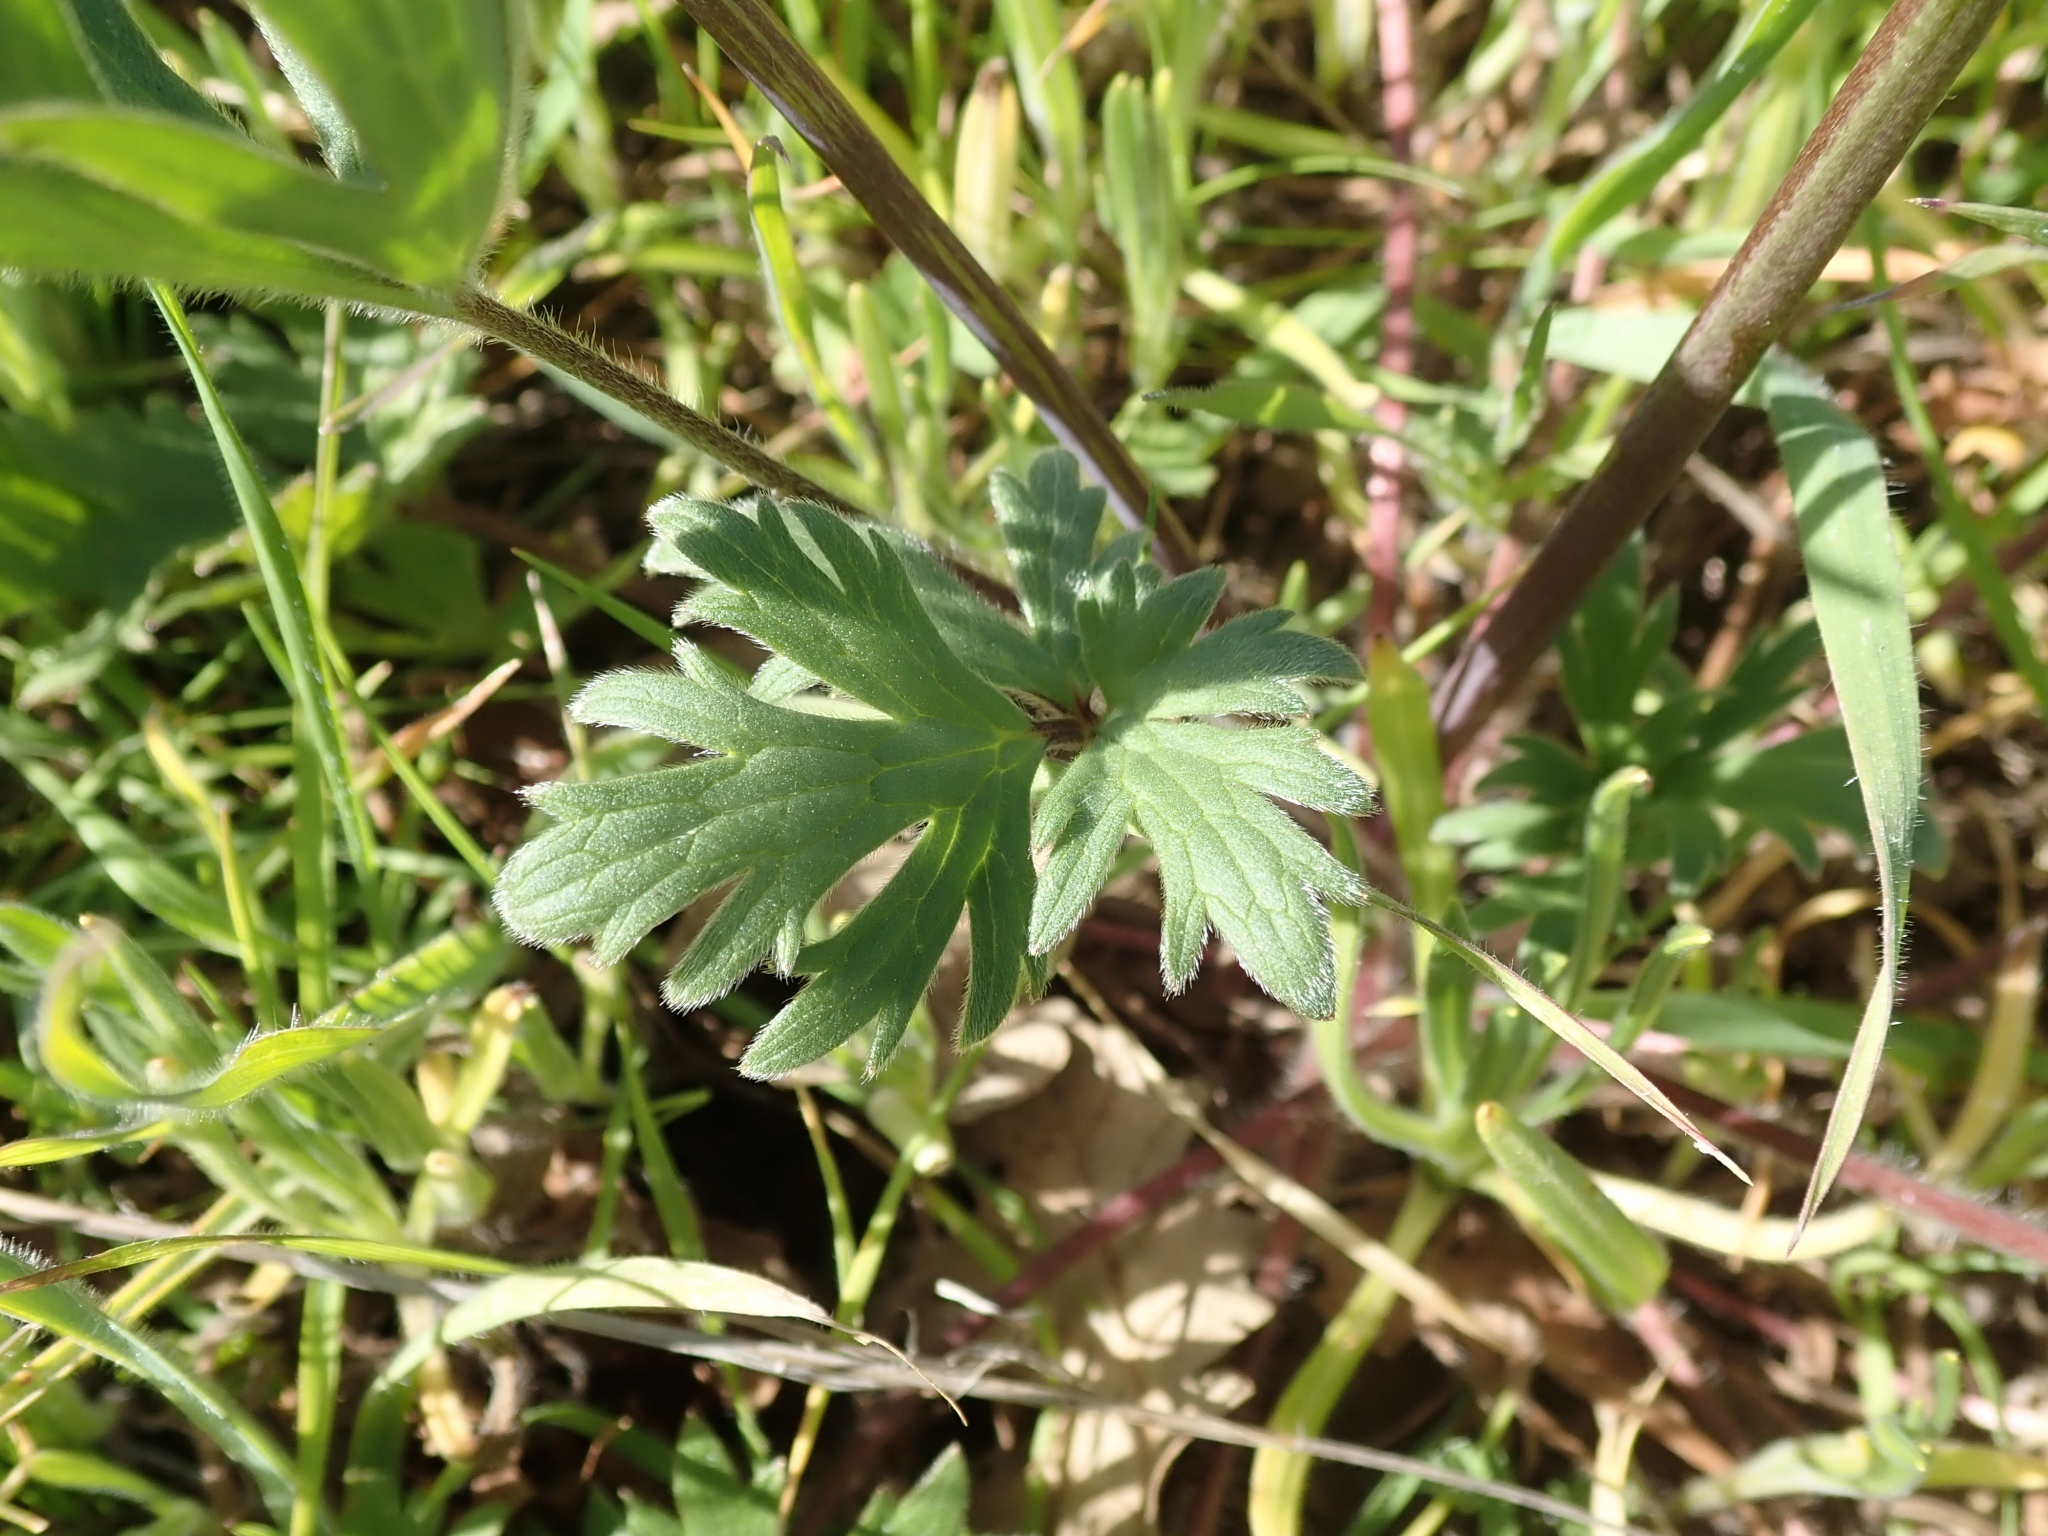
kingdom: Plantae
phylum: Tracheophyta
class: Magnoliopsida
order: Ranunculales
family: Ranunculaceae
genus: Ranunculus
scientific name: Ranunculus californicus
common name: California buttercup
